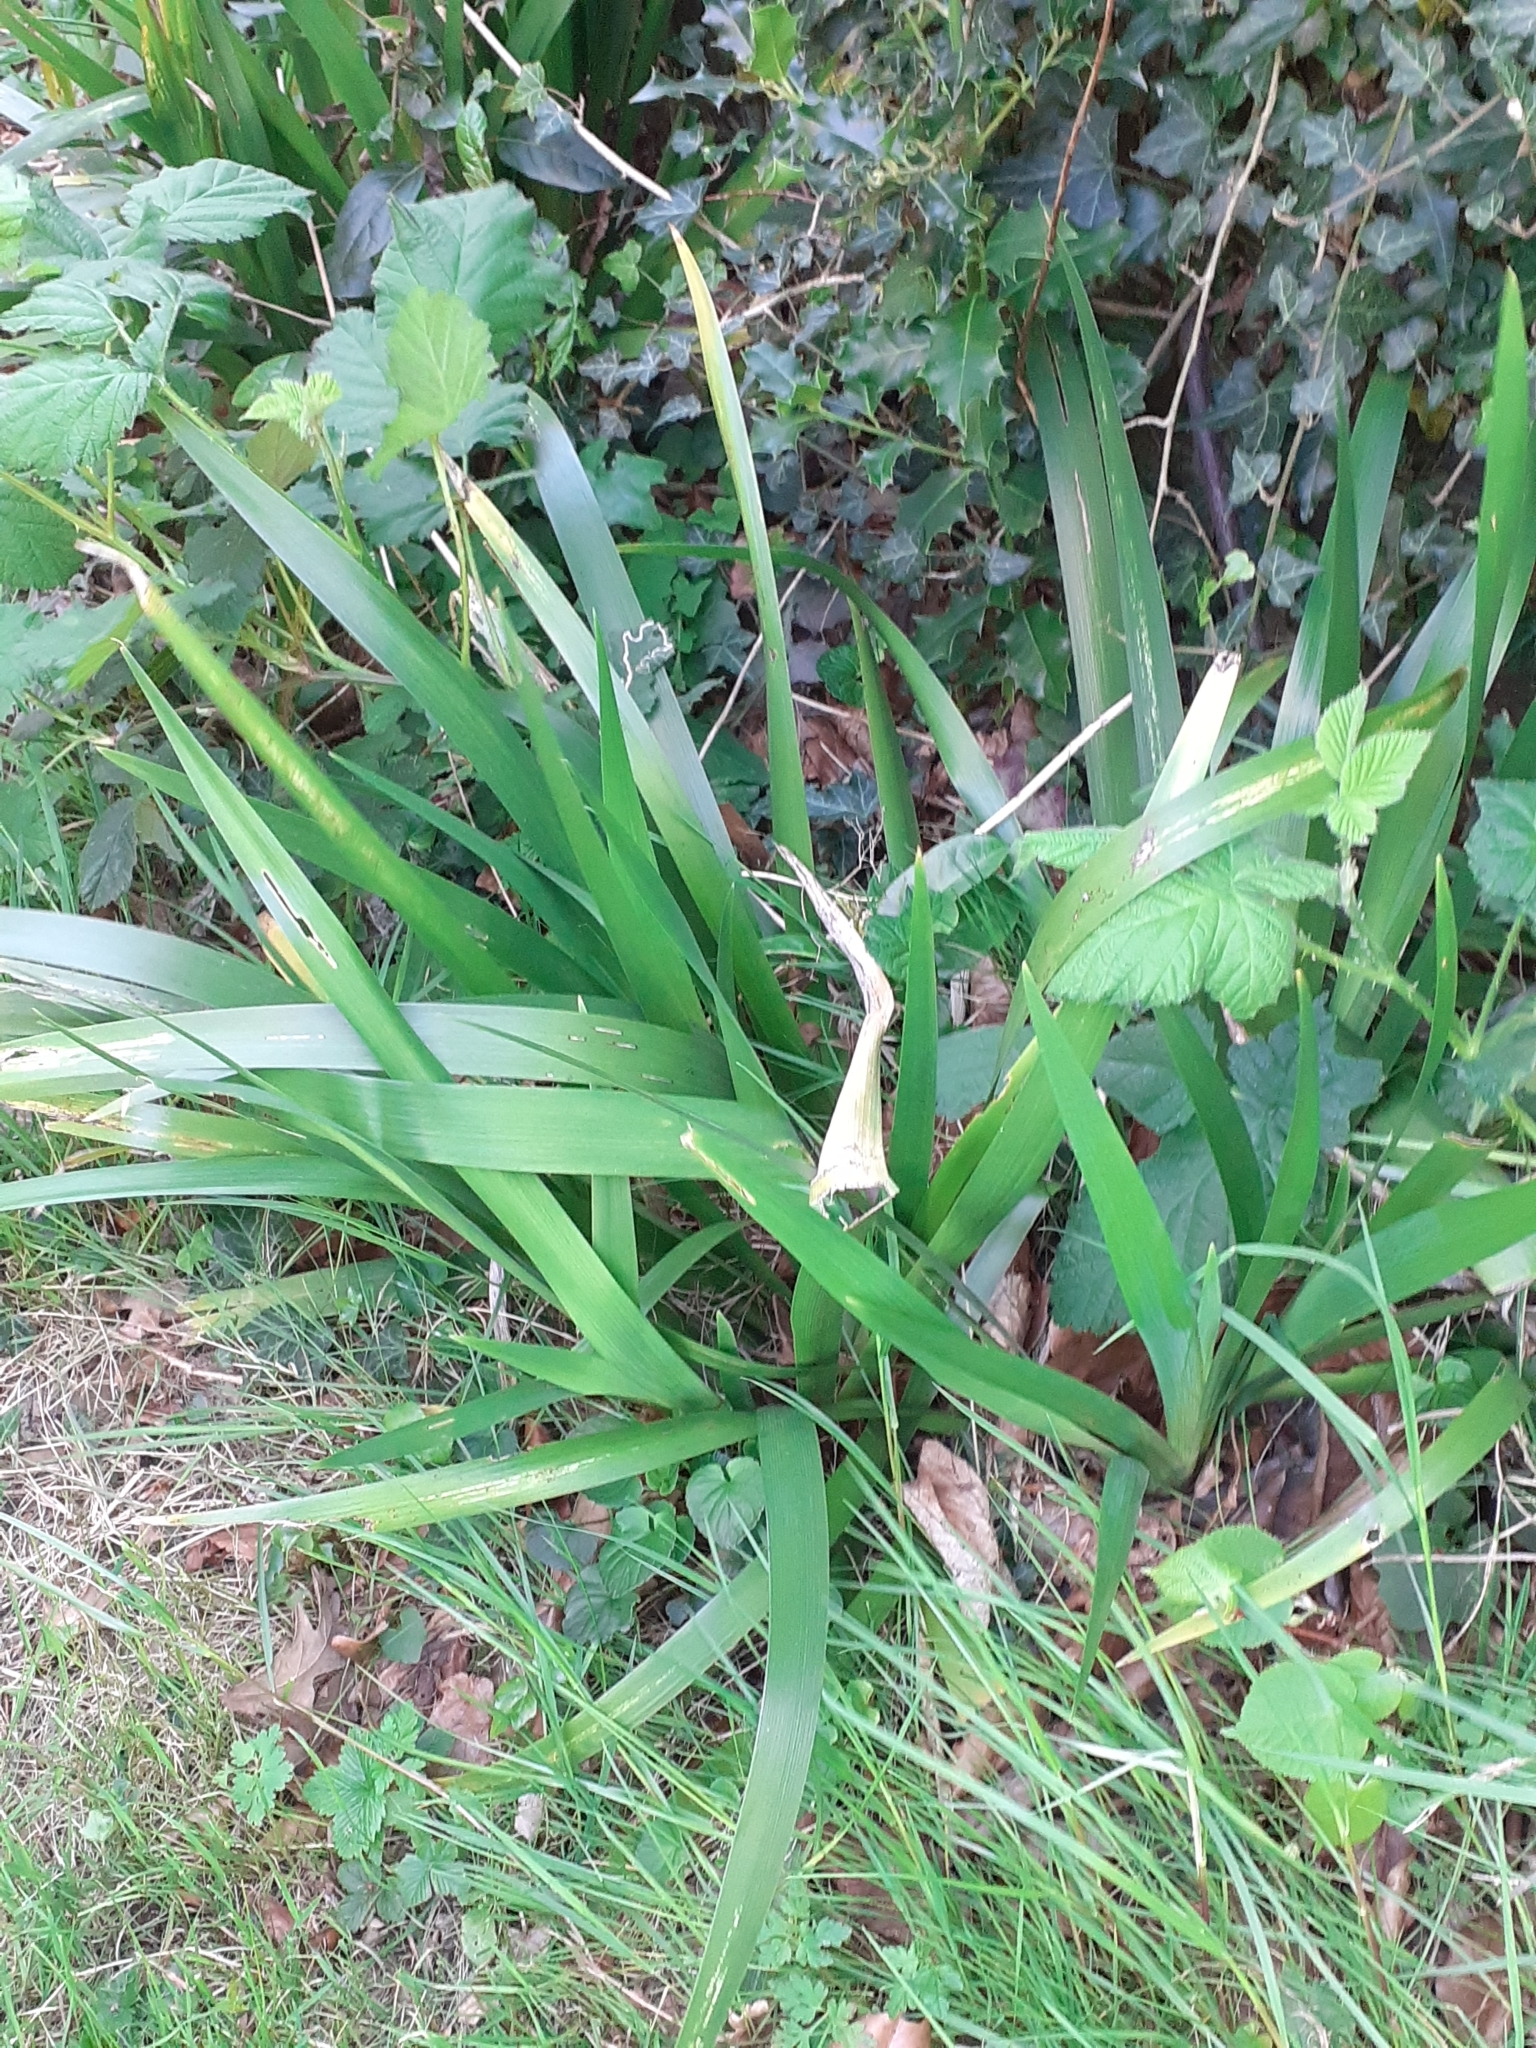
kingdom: Plantae
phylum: Tracheophyta
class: Liliopsida
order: Asparagales
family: Iridaceae
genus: Iris
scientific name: Iris foetidissima
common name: Stinking iris
